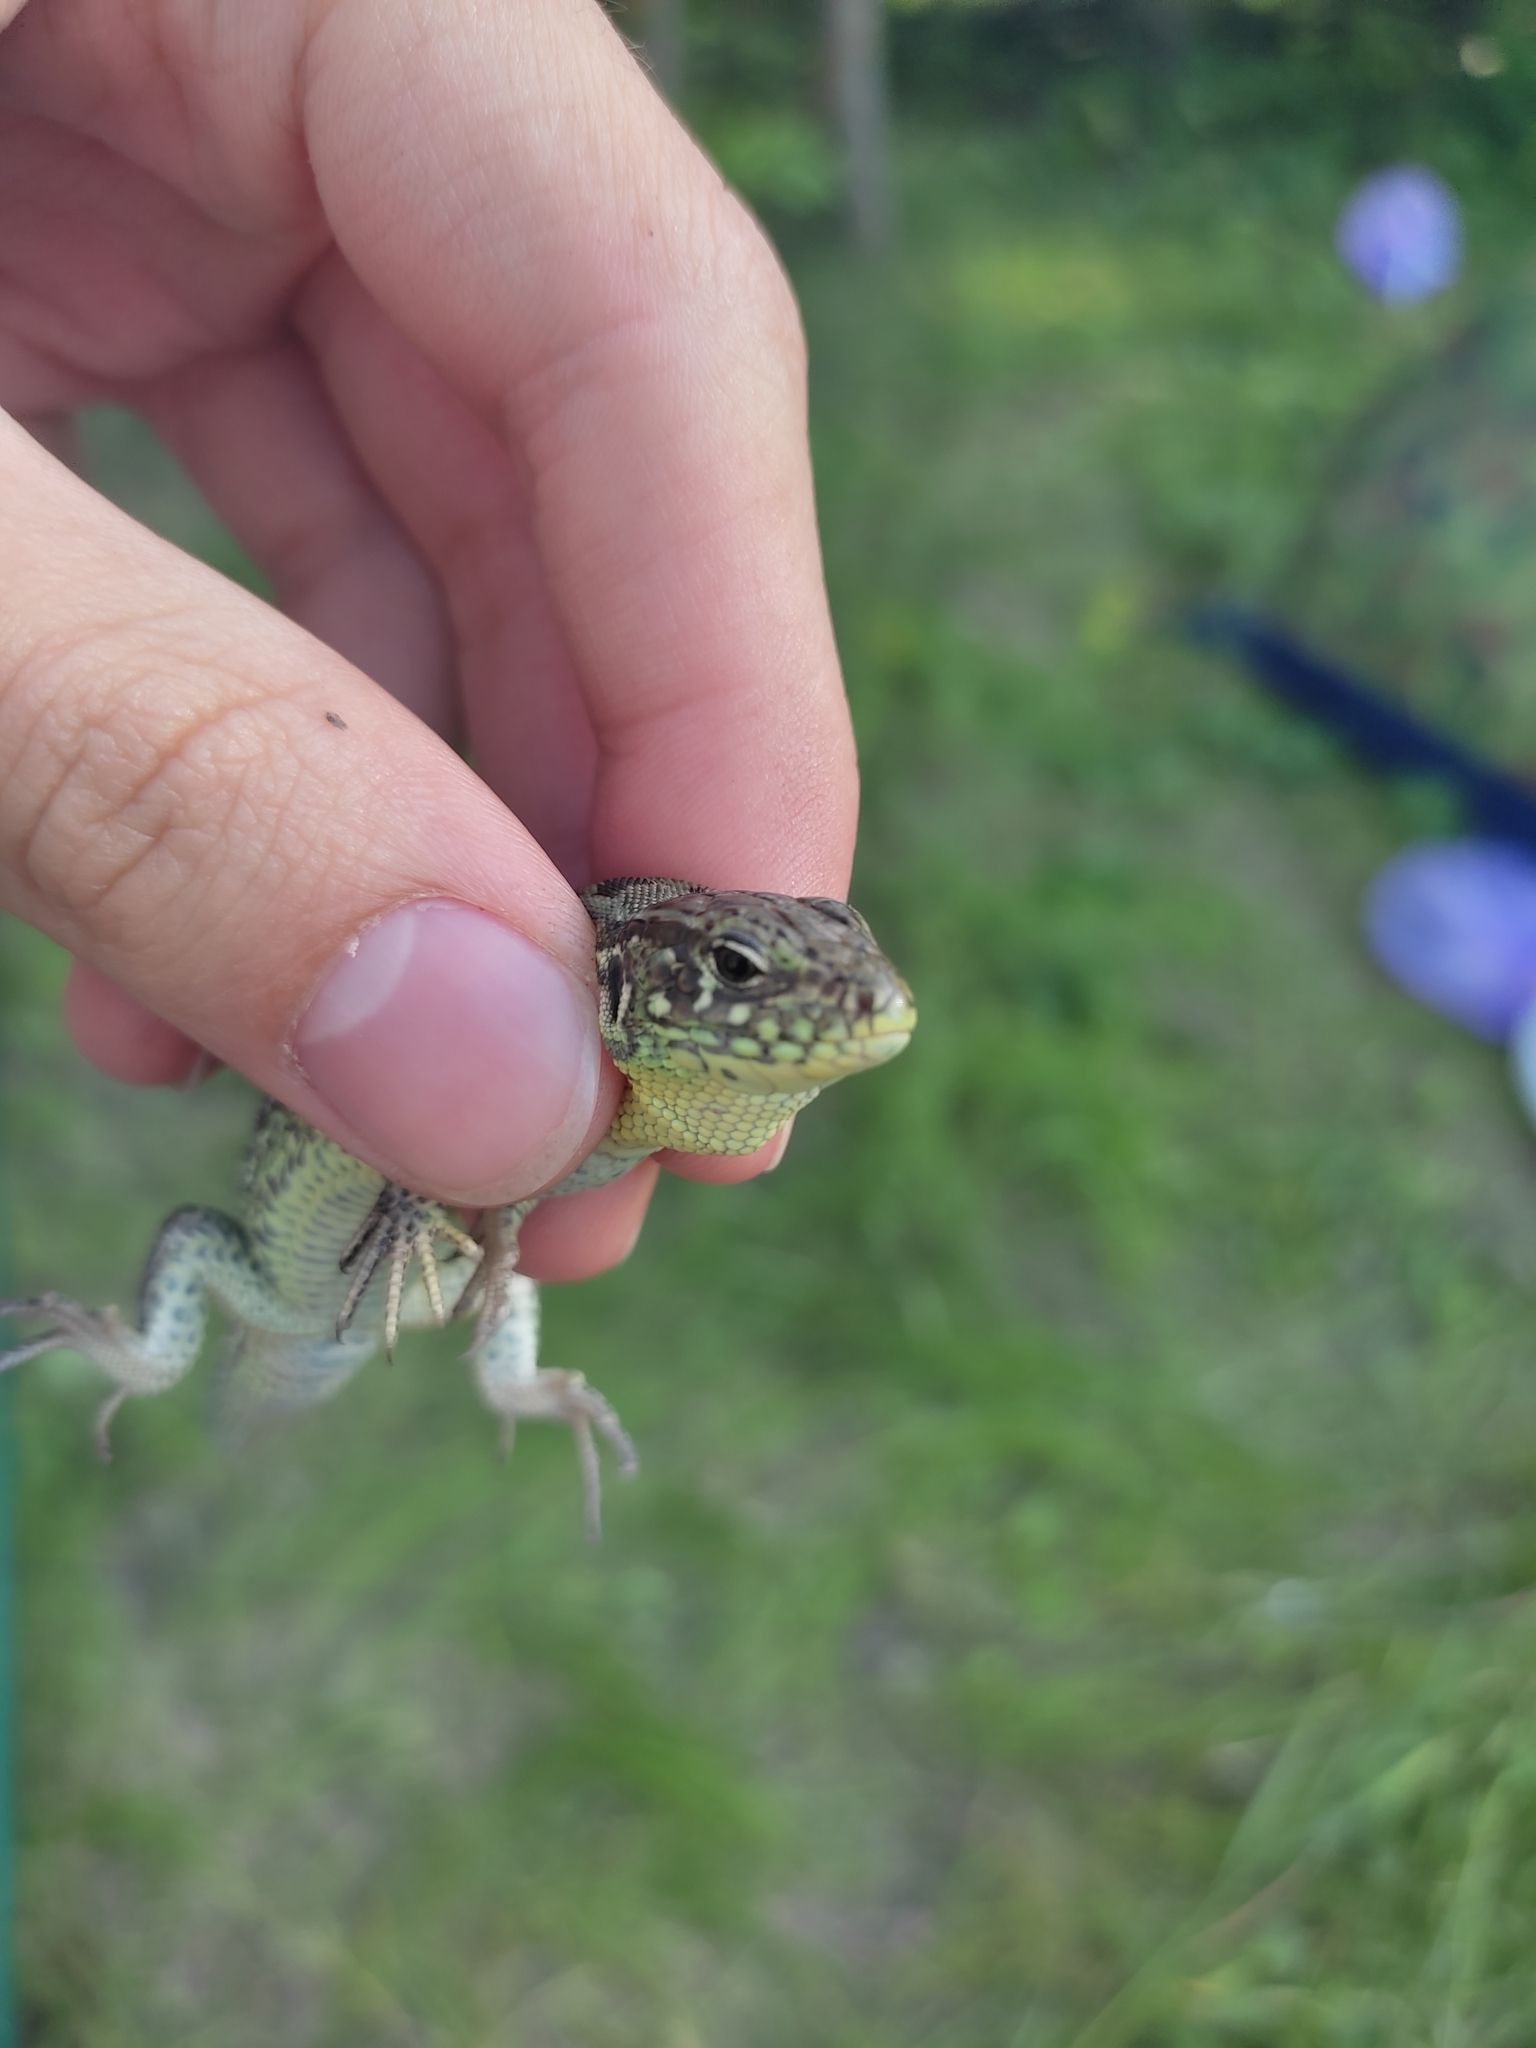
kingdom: Animalia
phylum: Chordata
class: Squamata
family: Lacertidae
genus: Lacerta
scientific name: Lacerta agilis
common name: Sand lizard
